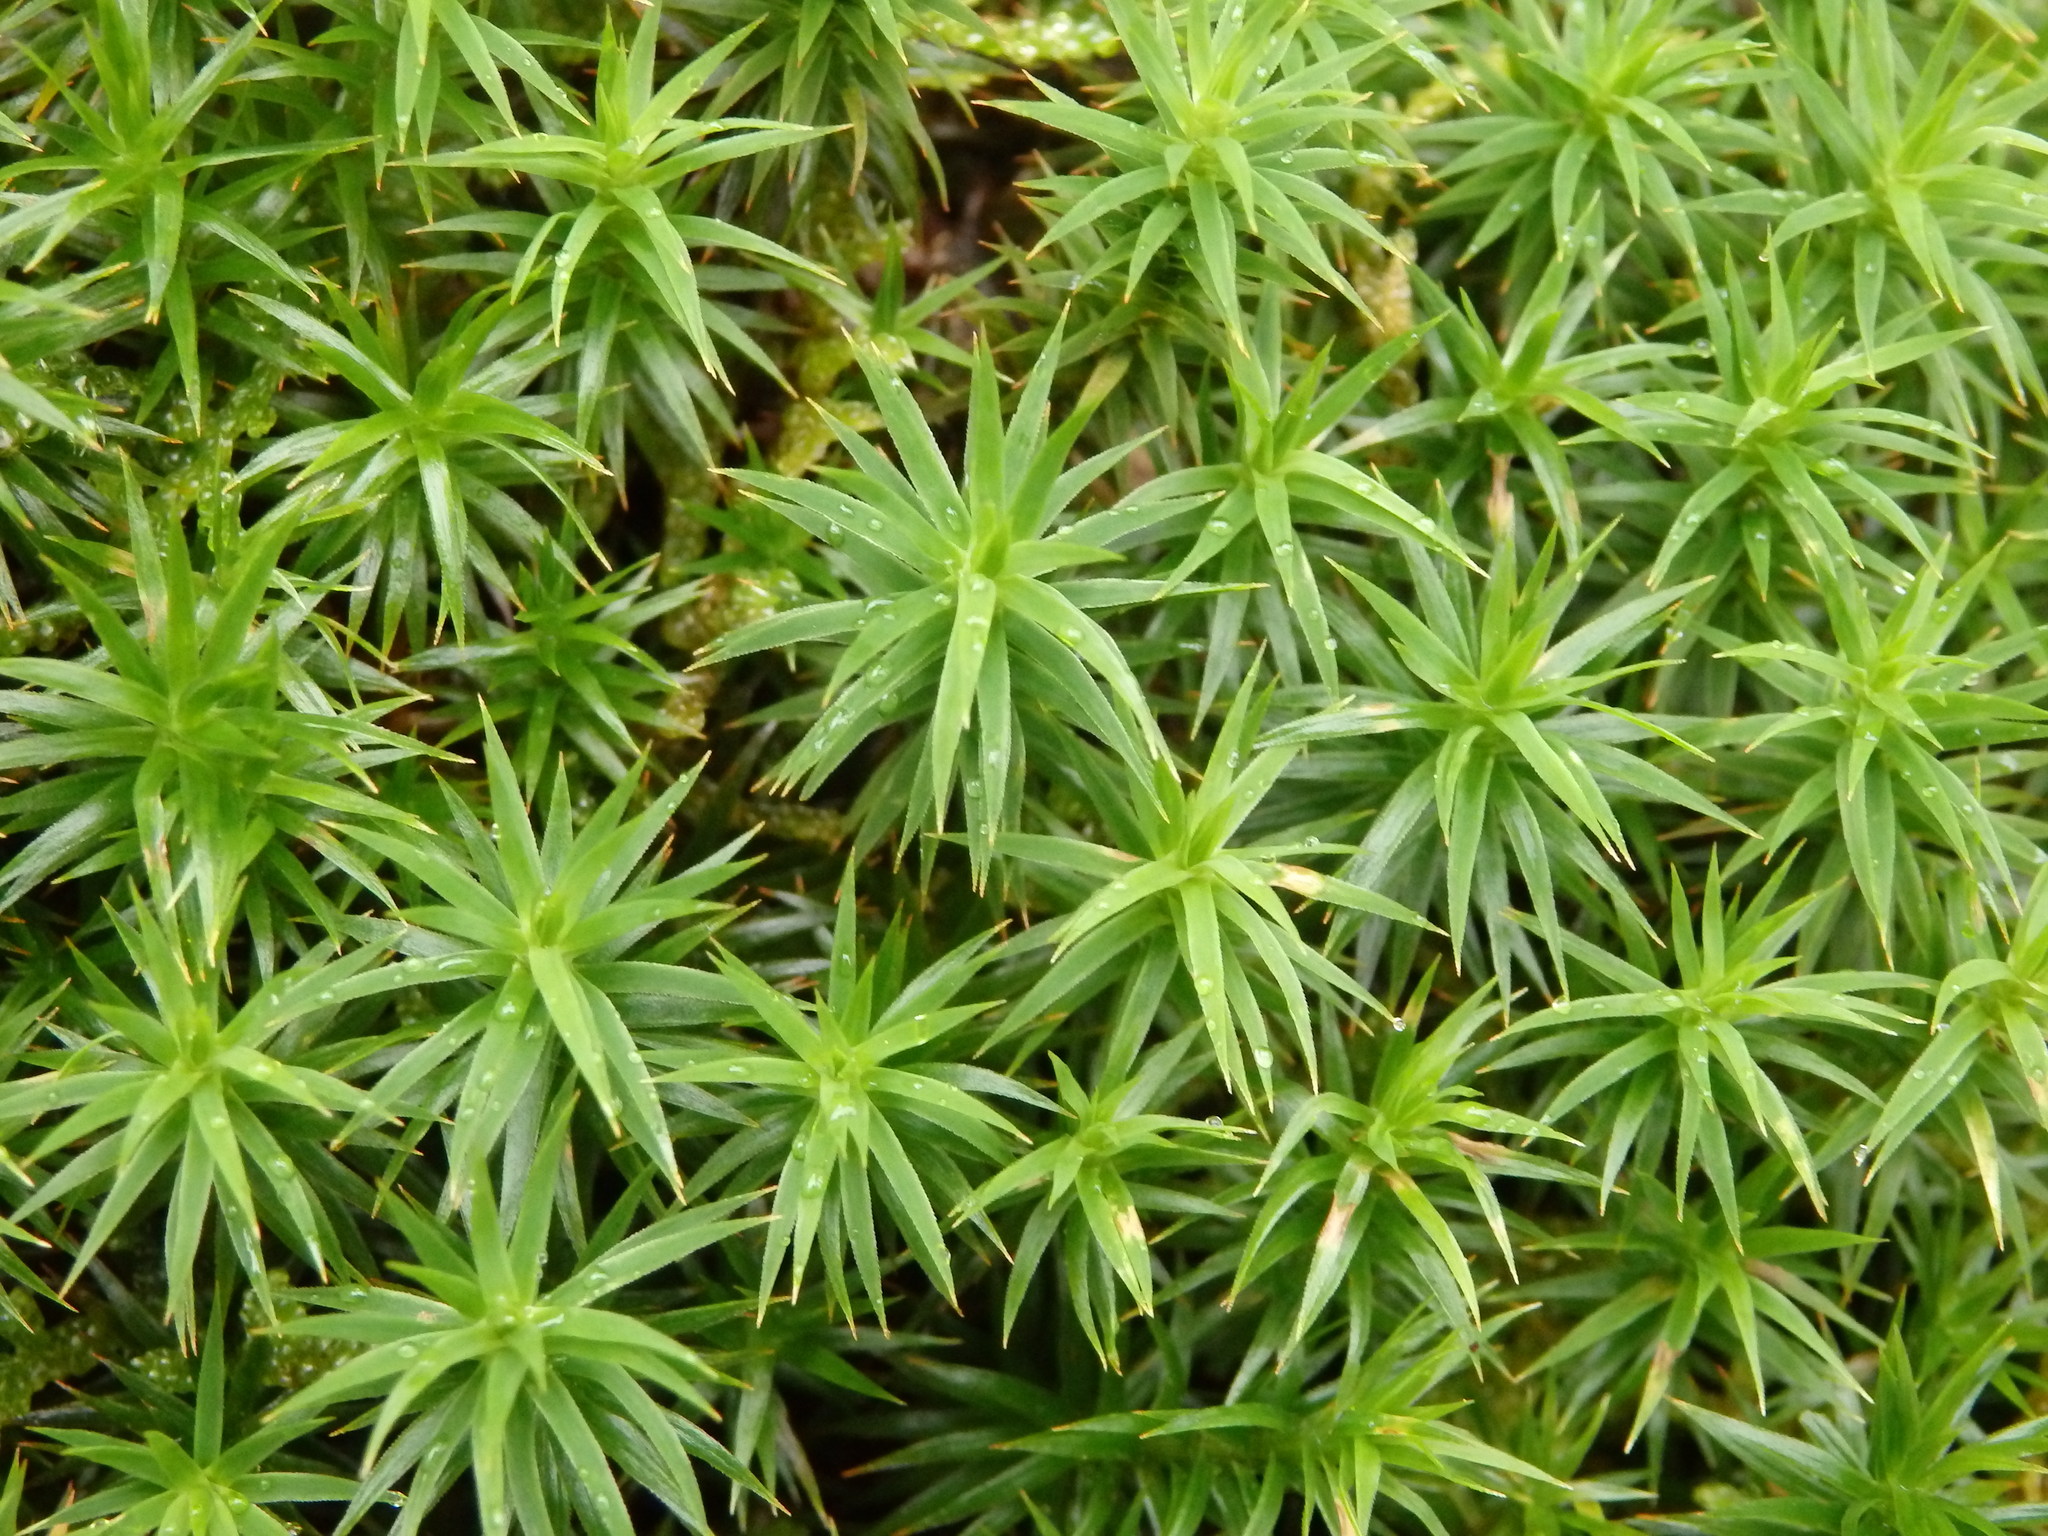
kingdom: Plantae
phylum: Bryophyta
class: Polytrichopsida
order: Polytrichales
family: Polytrichaceae
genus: Polytrichum
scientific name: Polytrichum formosum
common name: Bank haircap moss
